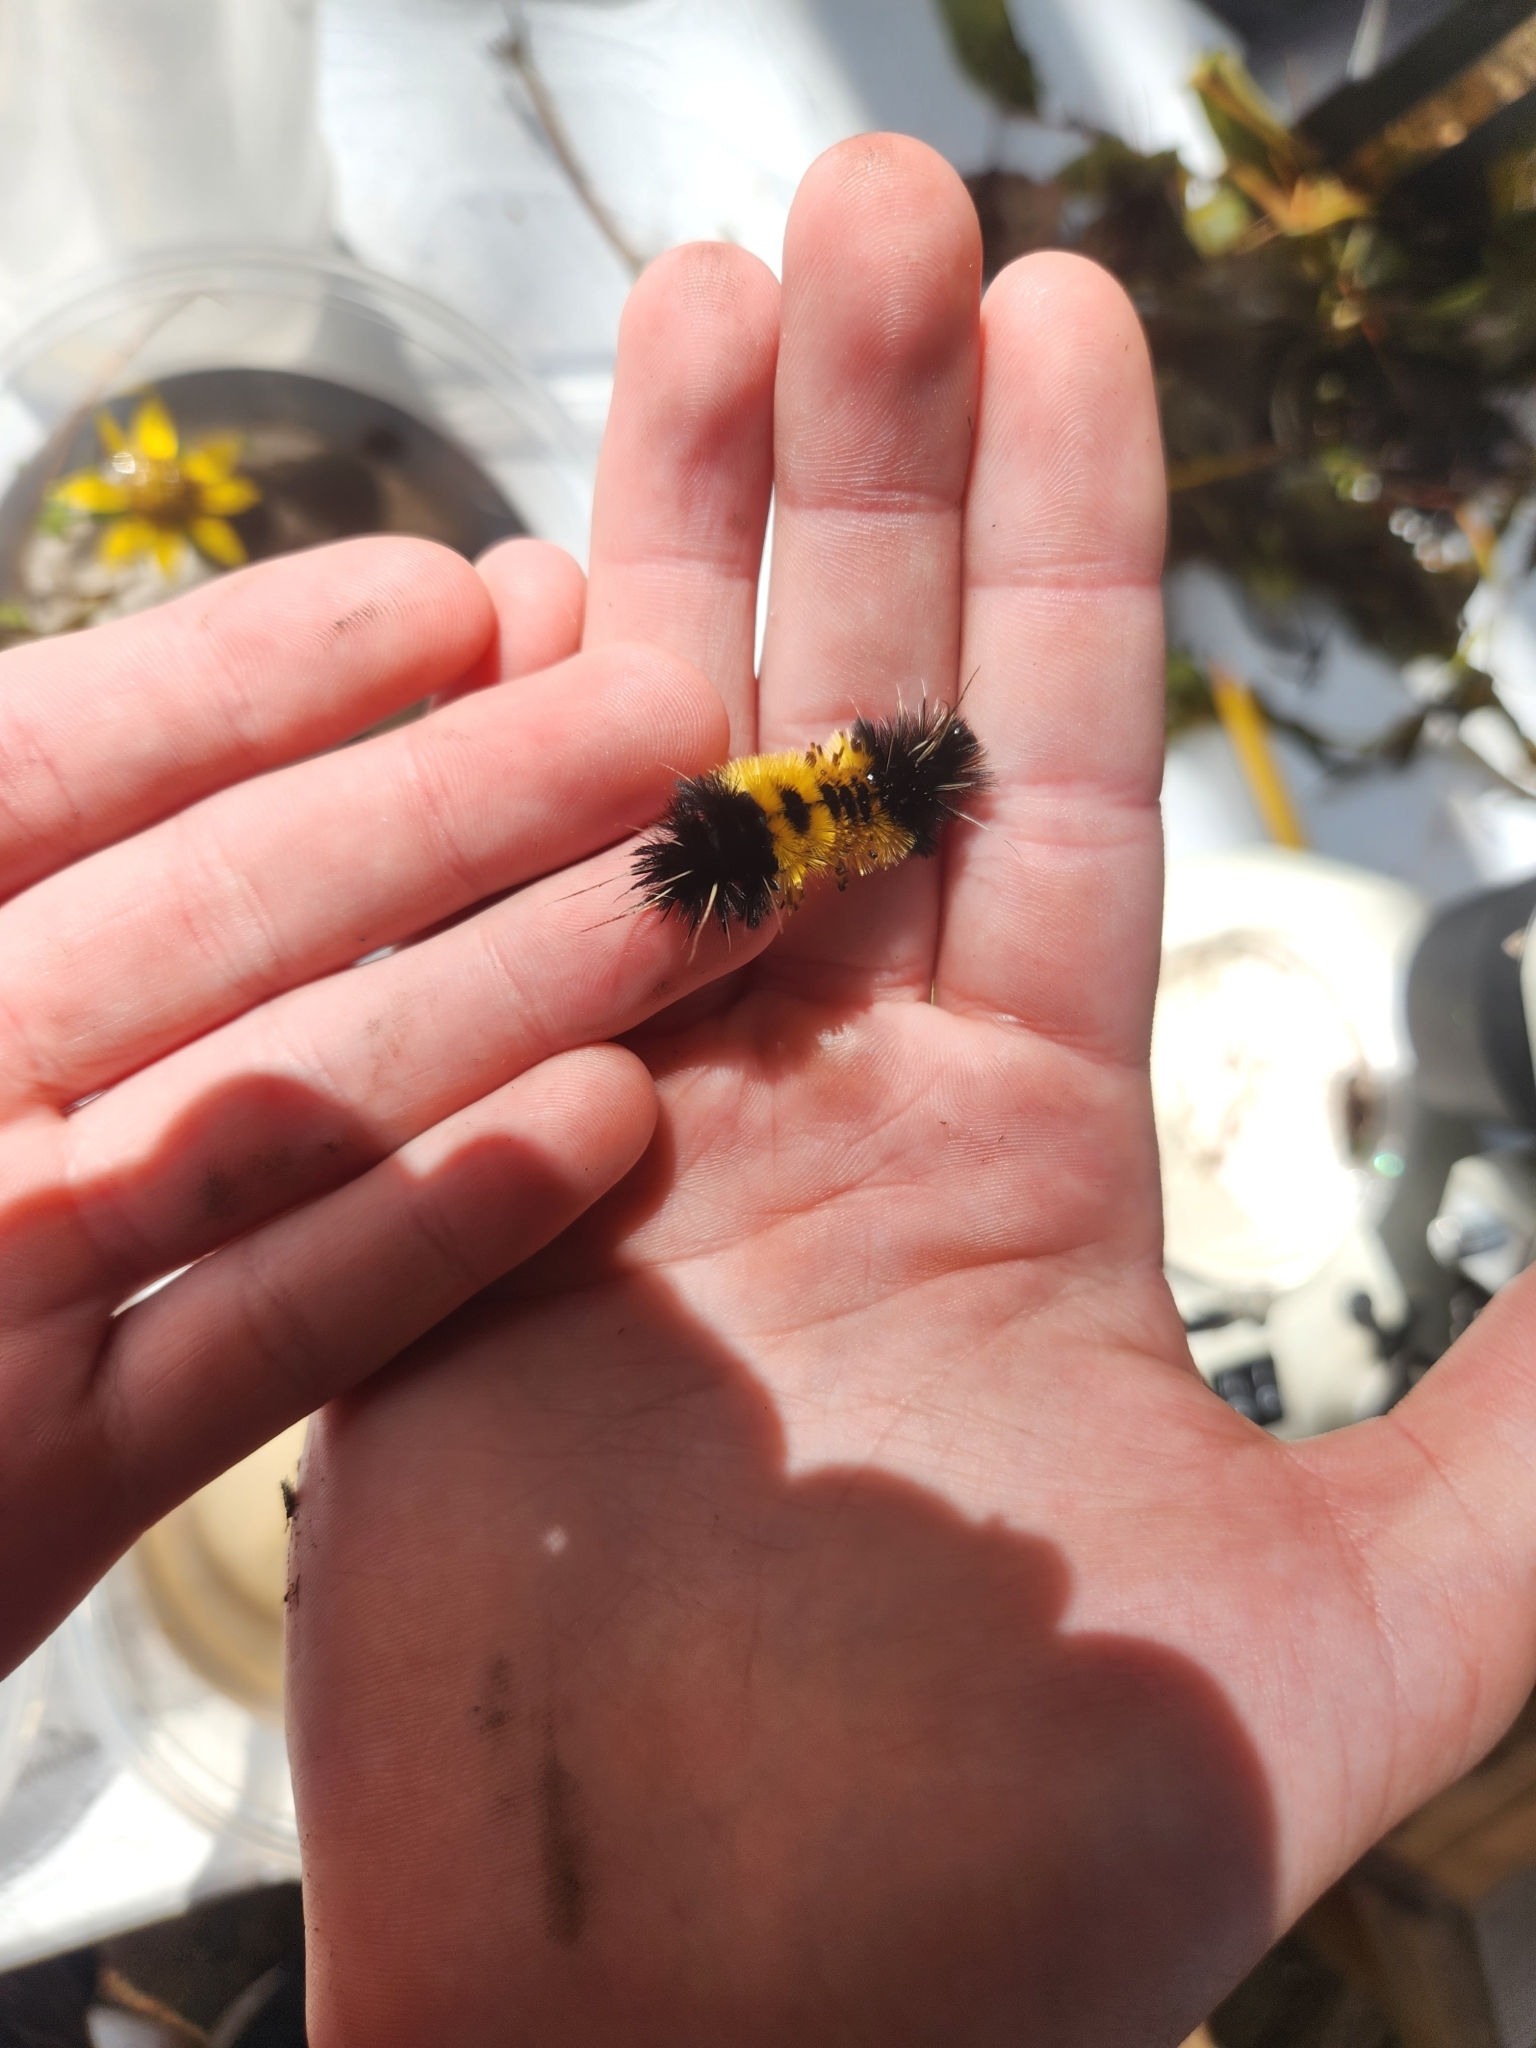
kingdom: Animalia
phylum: Arthropoda
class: Insecta
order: Lepidoptera
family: Erebidae
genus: Lophocampa
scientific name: Lophocampa maculata
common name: Spotted tussock moth
